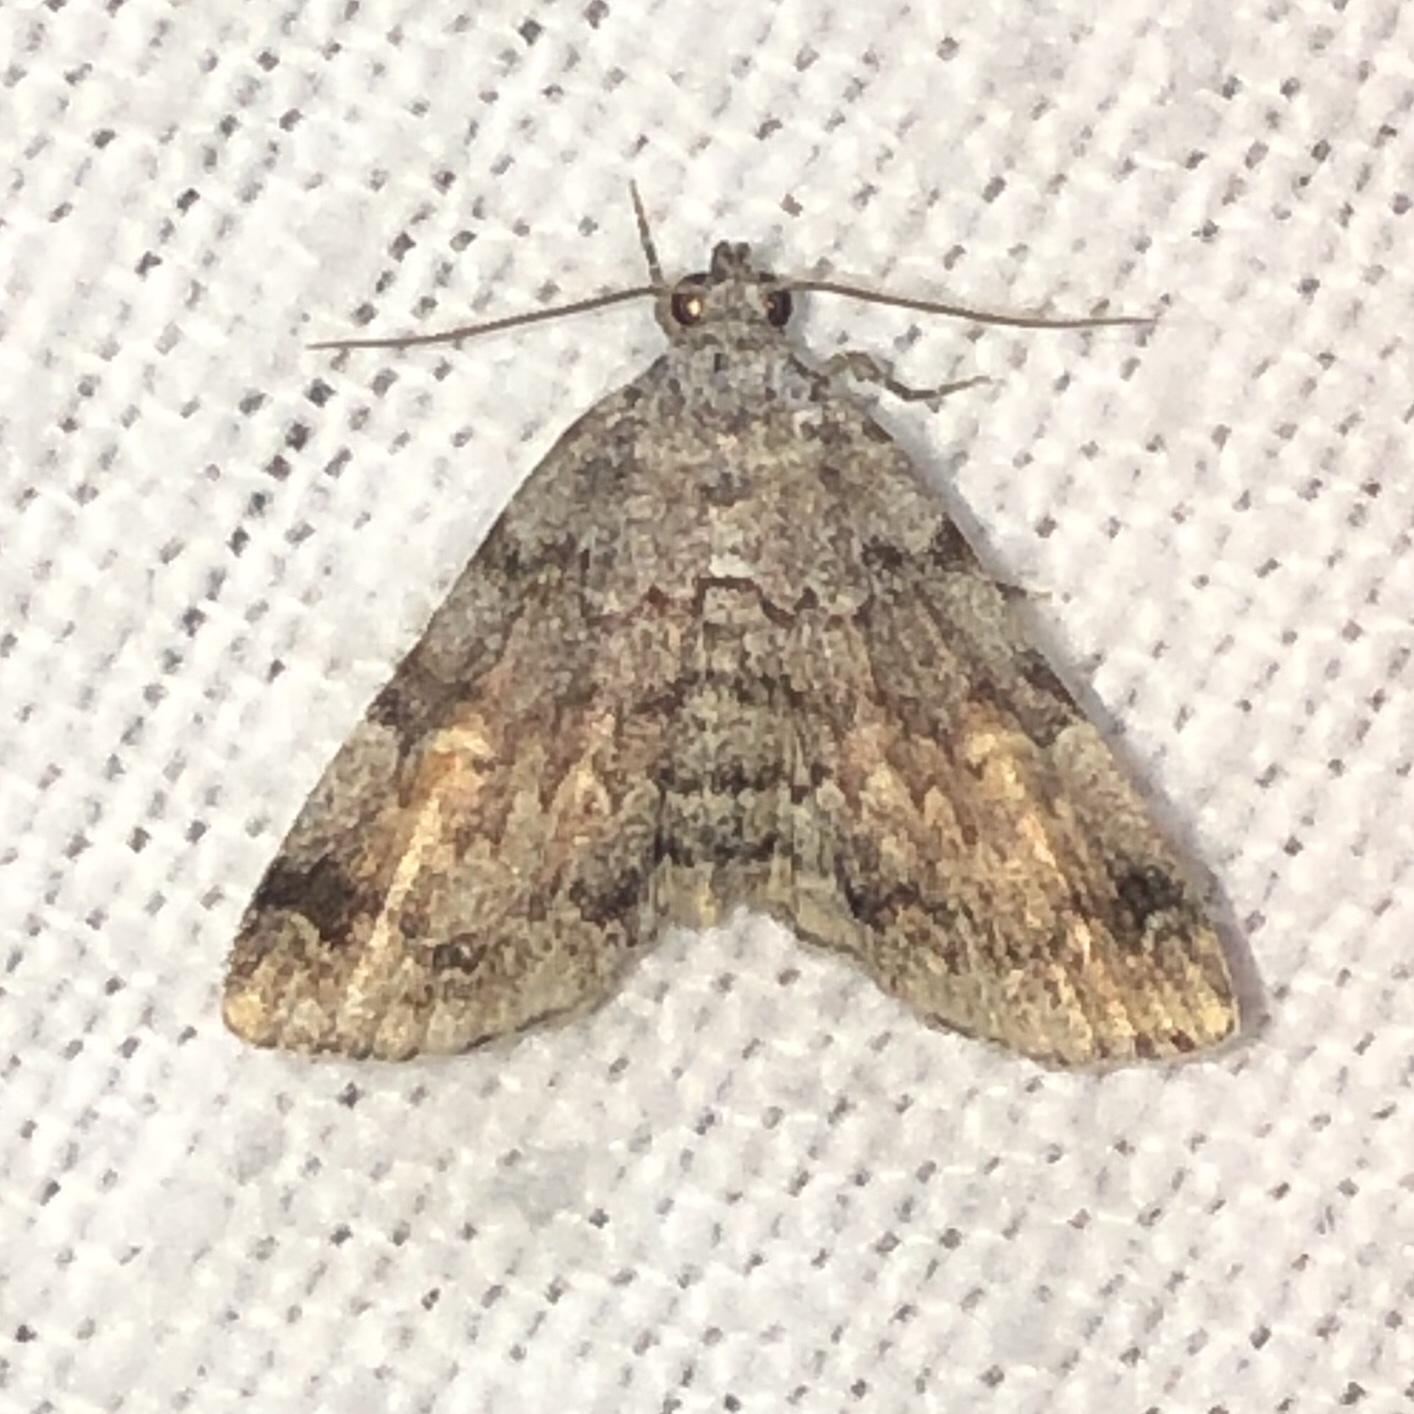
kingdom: Animalia
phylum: Arthropoda
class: Insecta
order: Lepidoptera
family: Erebidae
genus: Idia
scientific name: Idia americalis
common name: American idia moth
